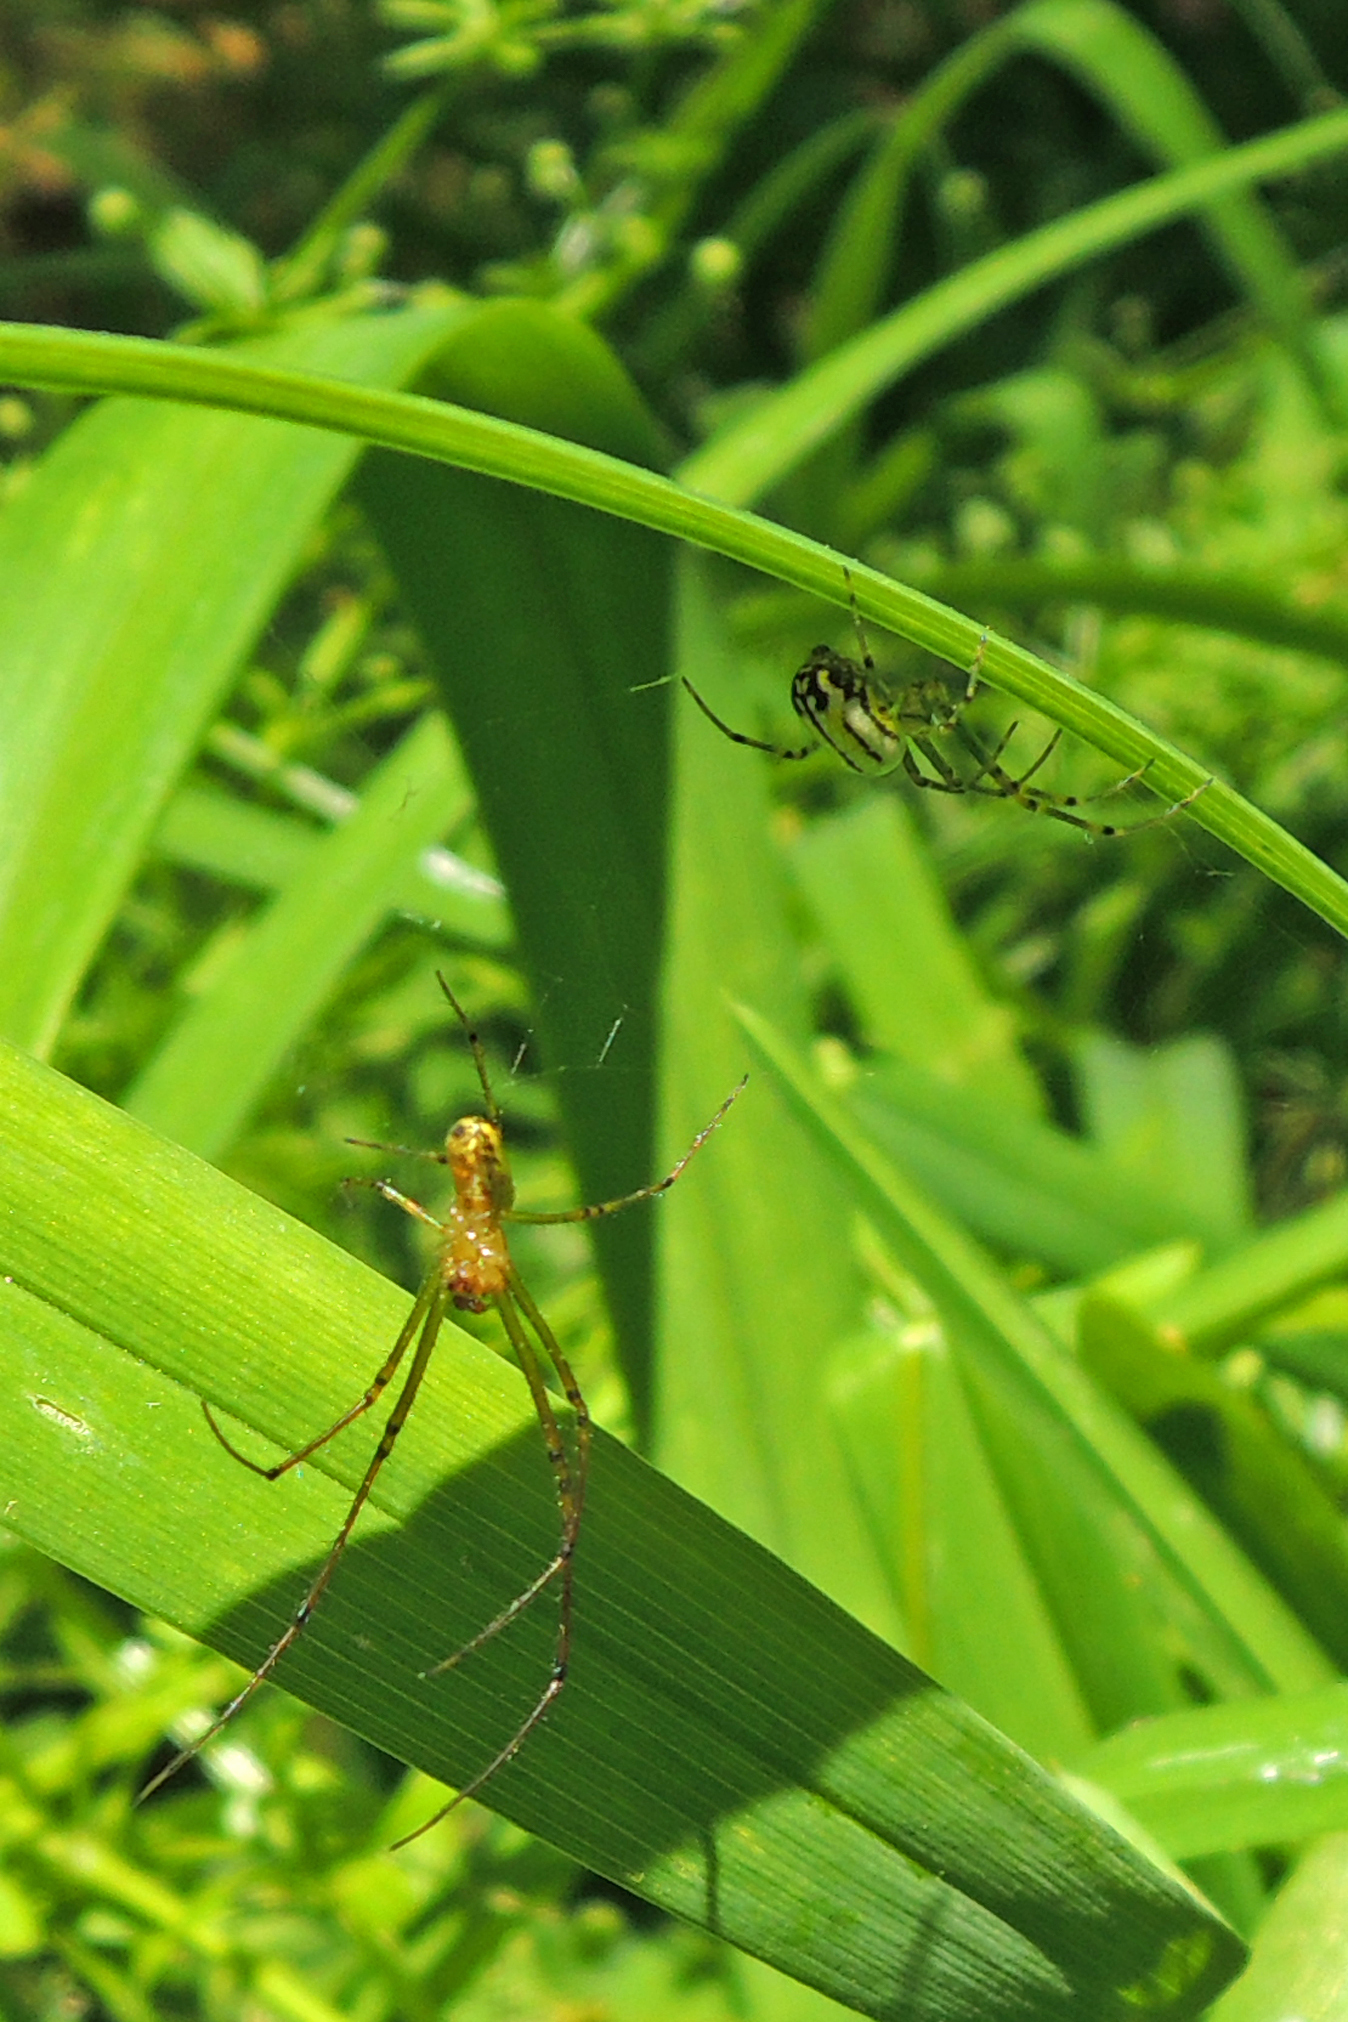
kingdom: Animalia
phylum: Arthropoda
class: Arachnida
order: Araneae
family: Tetragnathidae
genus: Leucauge
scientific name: Leucauge venusta
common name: Longjawed orb weavers
